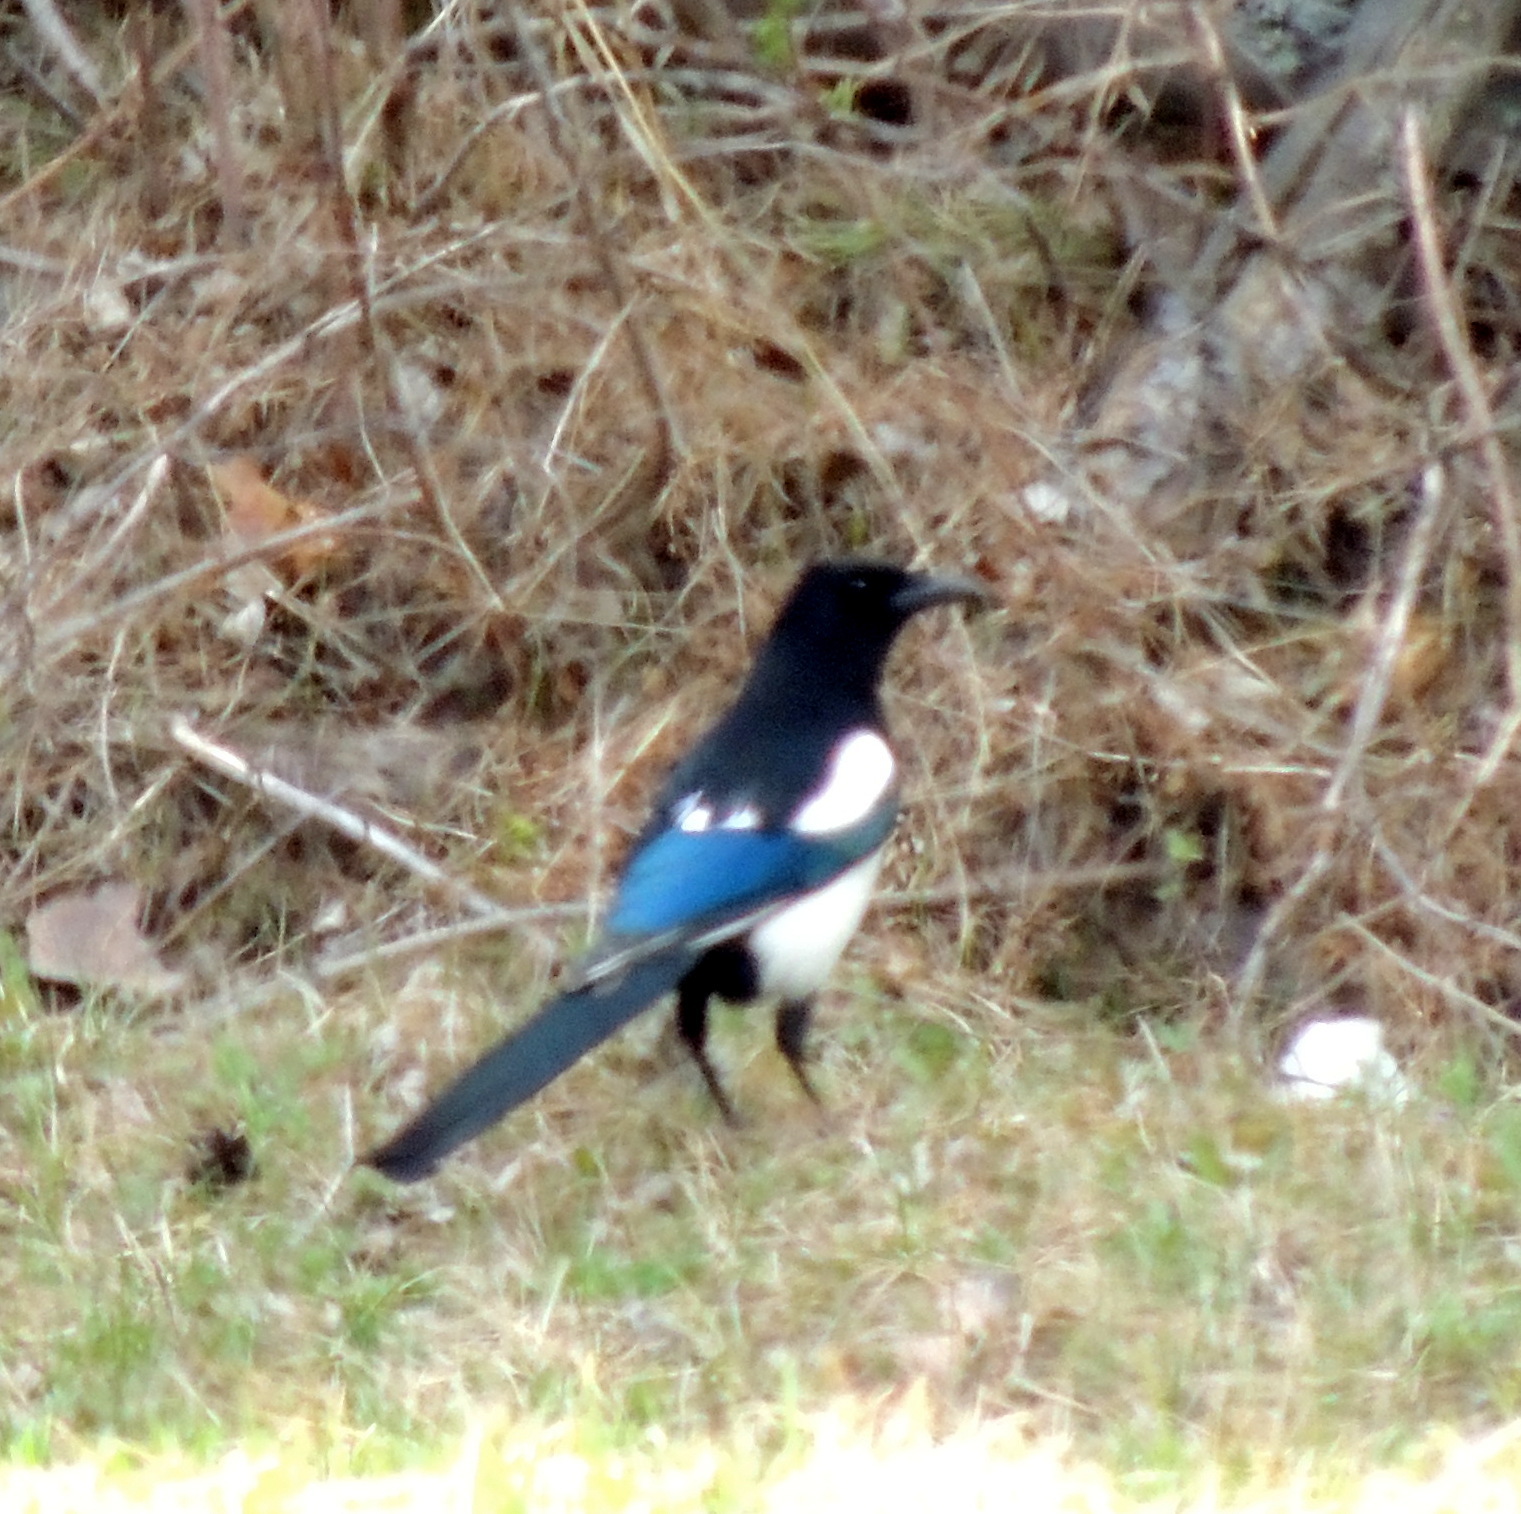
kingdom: Animalia
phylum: Chordata
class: Aves
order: Passeriformes
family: Corvidae
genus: Pica
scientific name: Pica pica
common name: Eurasian magpie
